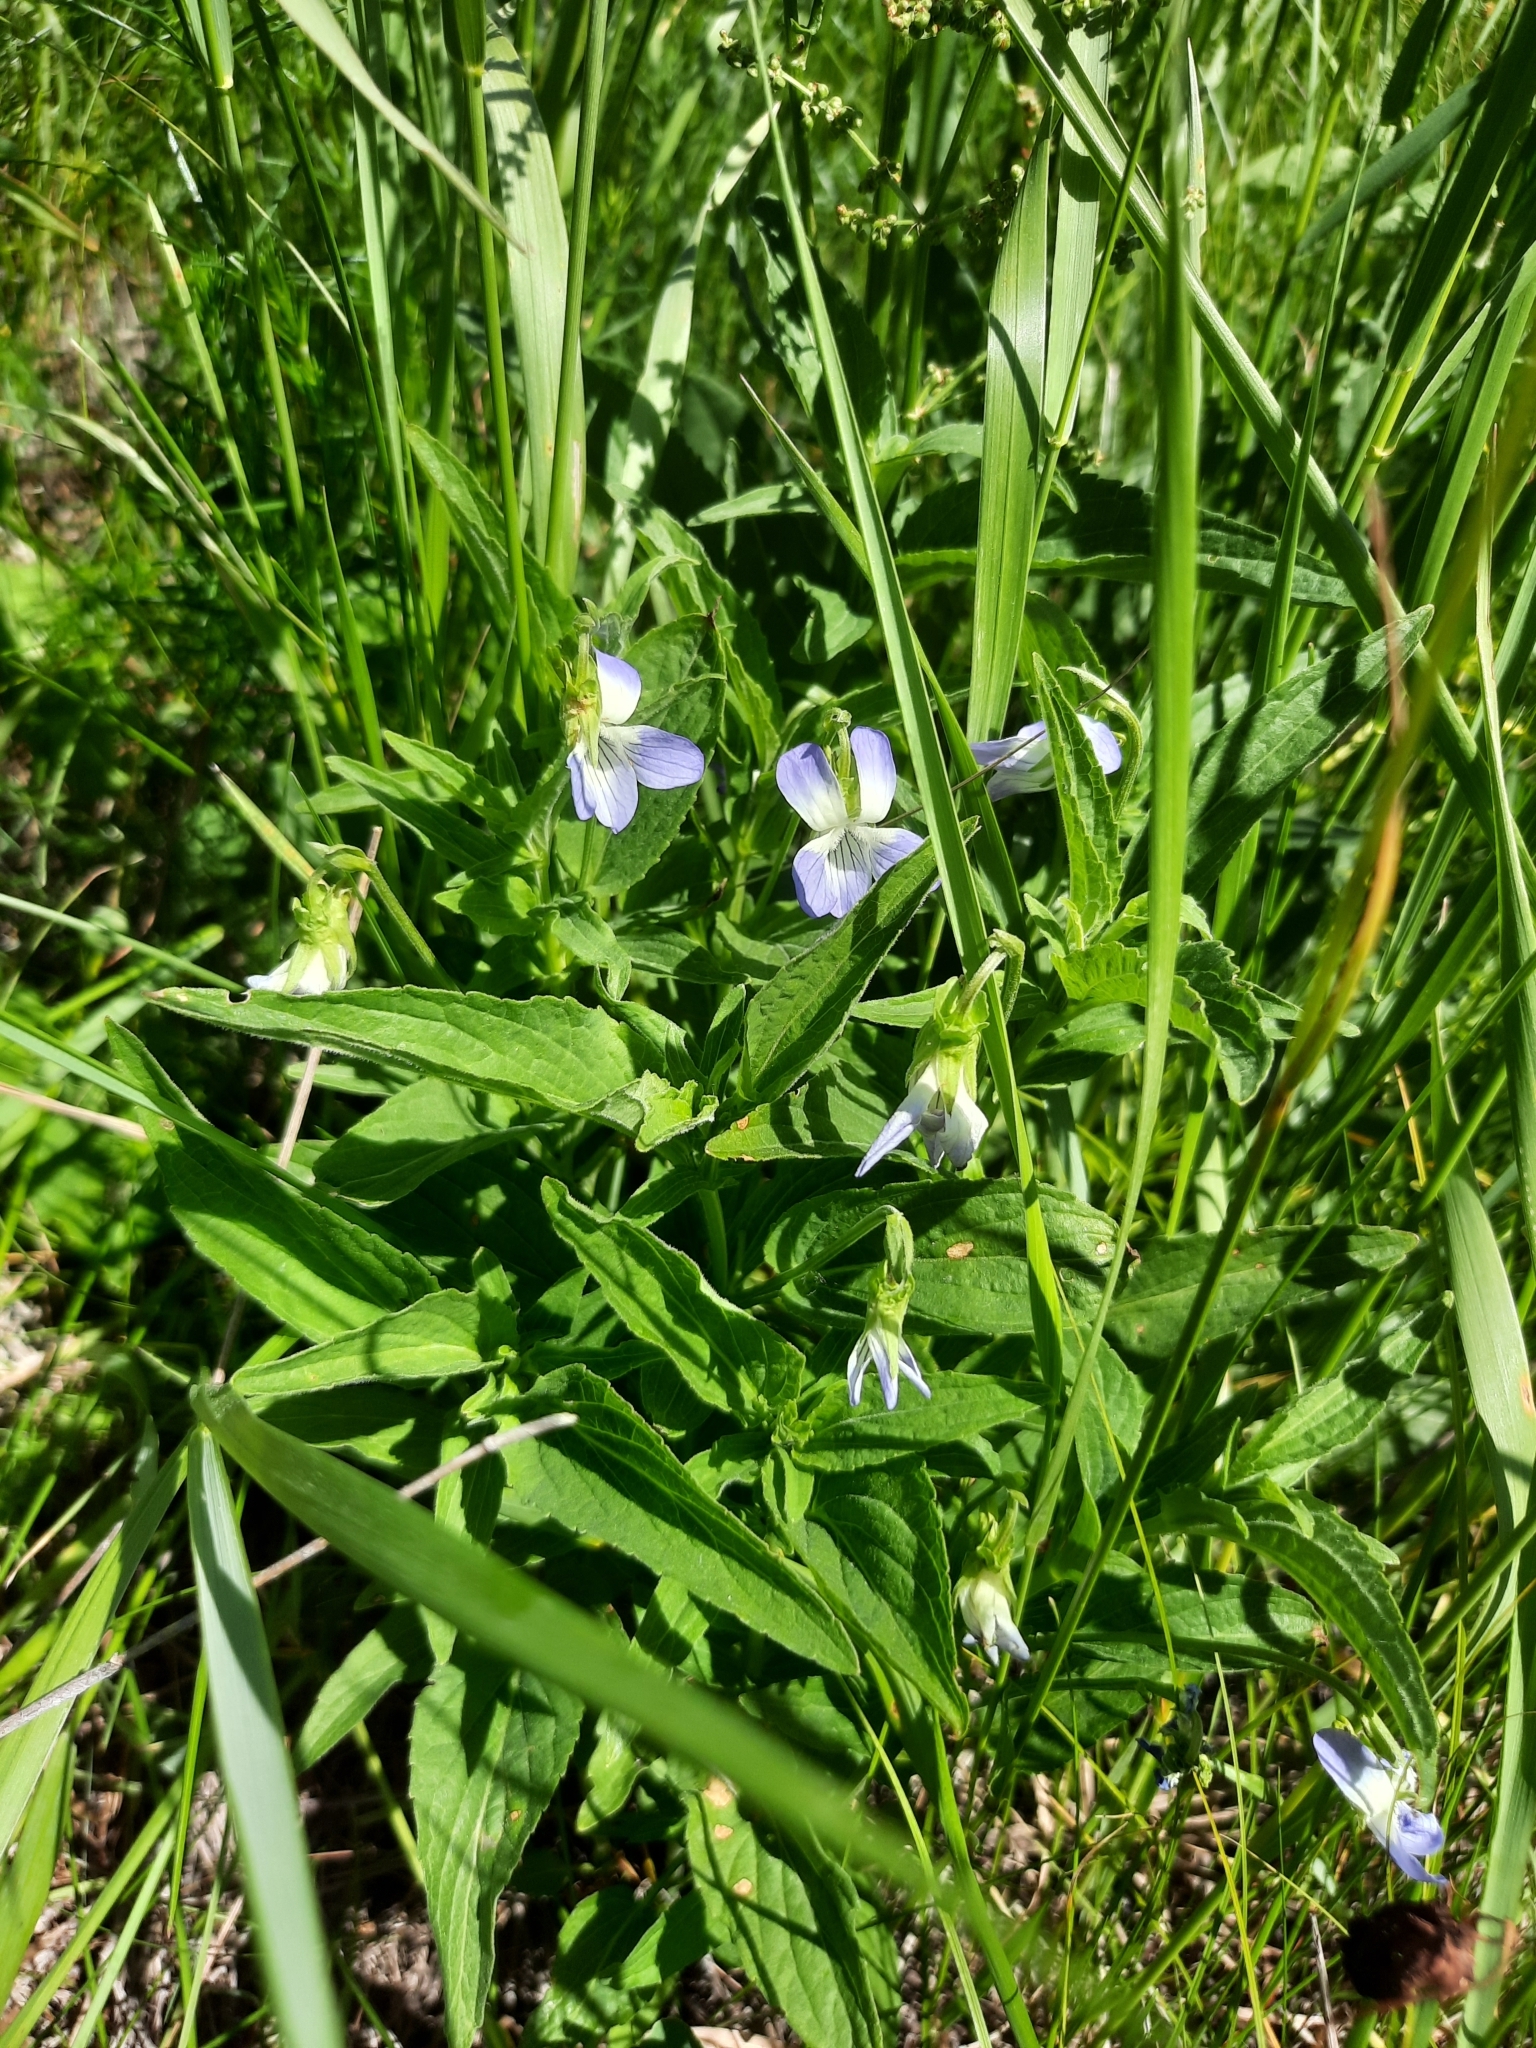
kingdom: Plantae
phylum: Tracheophyta
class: Magnoliopsida
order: Malpighiales
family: Violaceae
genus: Viola
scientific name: Viola elatior
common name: Tall violet
